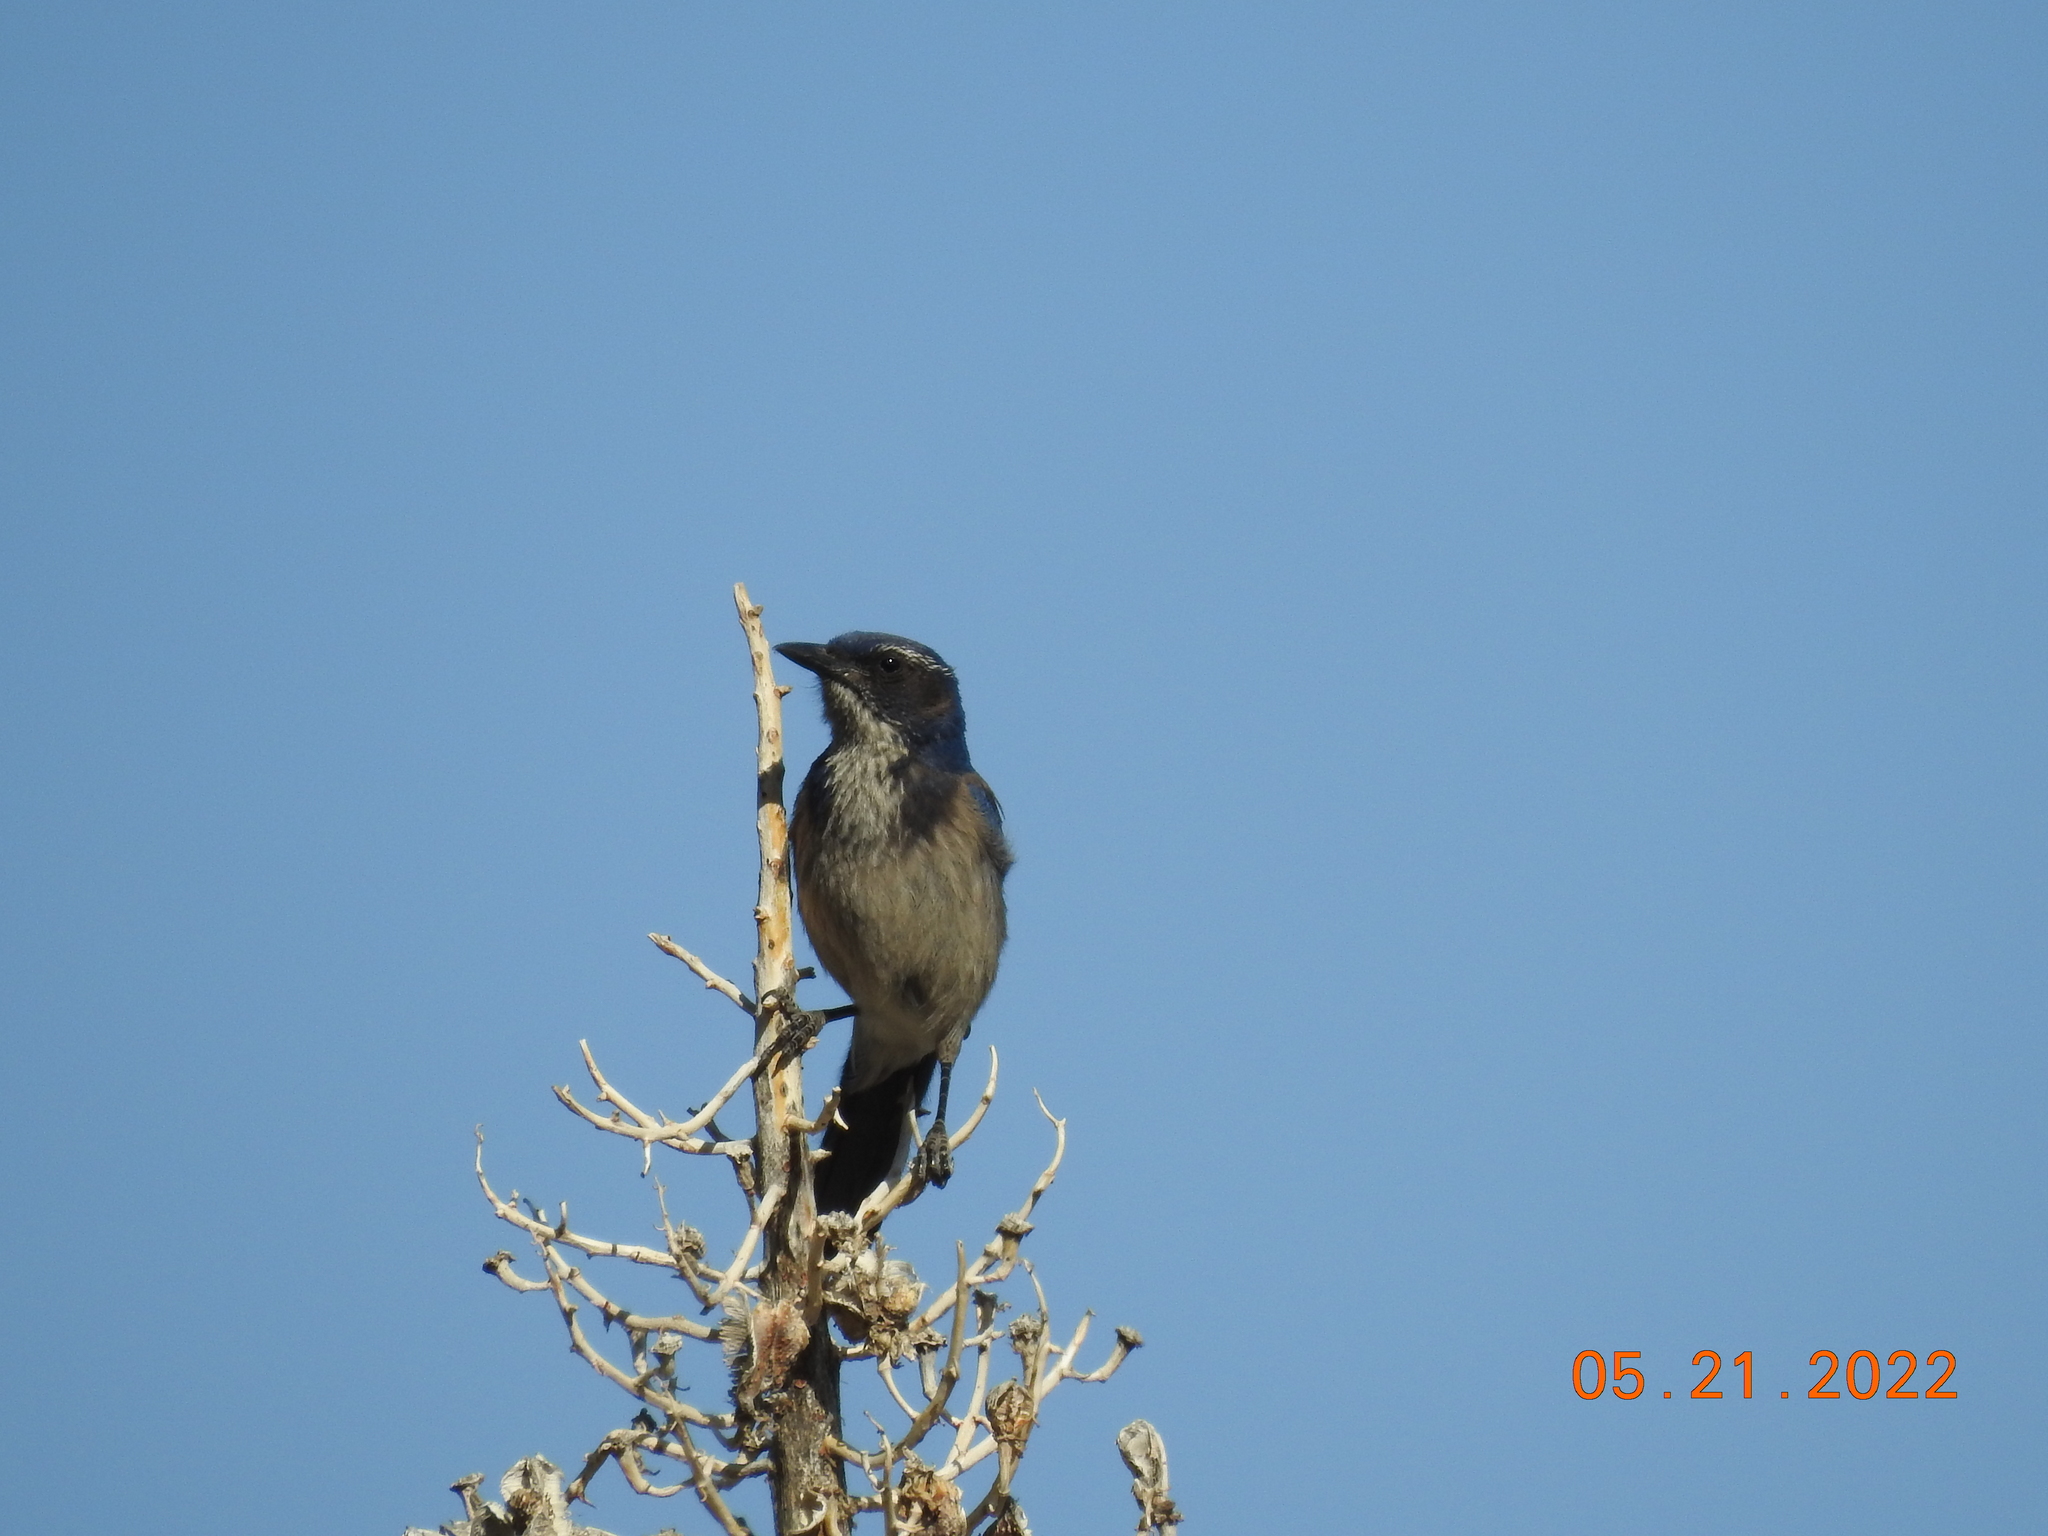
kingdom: Animalia
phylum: Chordata
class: Aves
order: Passeriformes
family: Corvidae
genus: Aphelocoma
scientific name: Aphelocoma californica
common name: California scrub-jay
